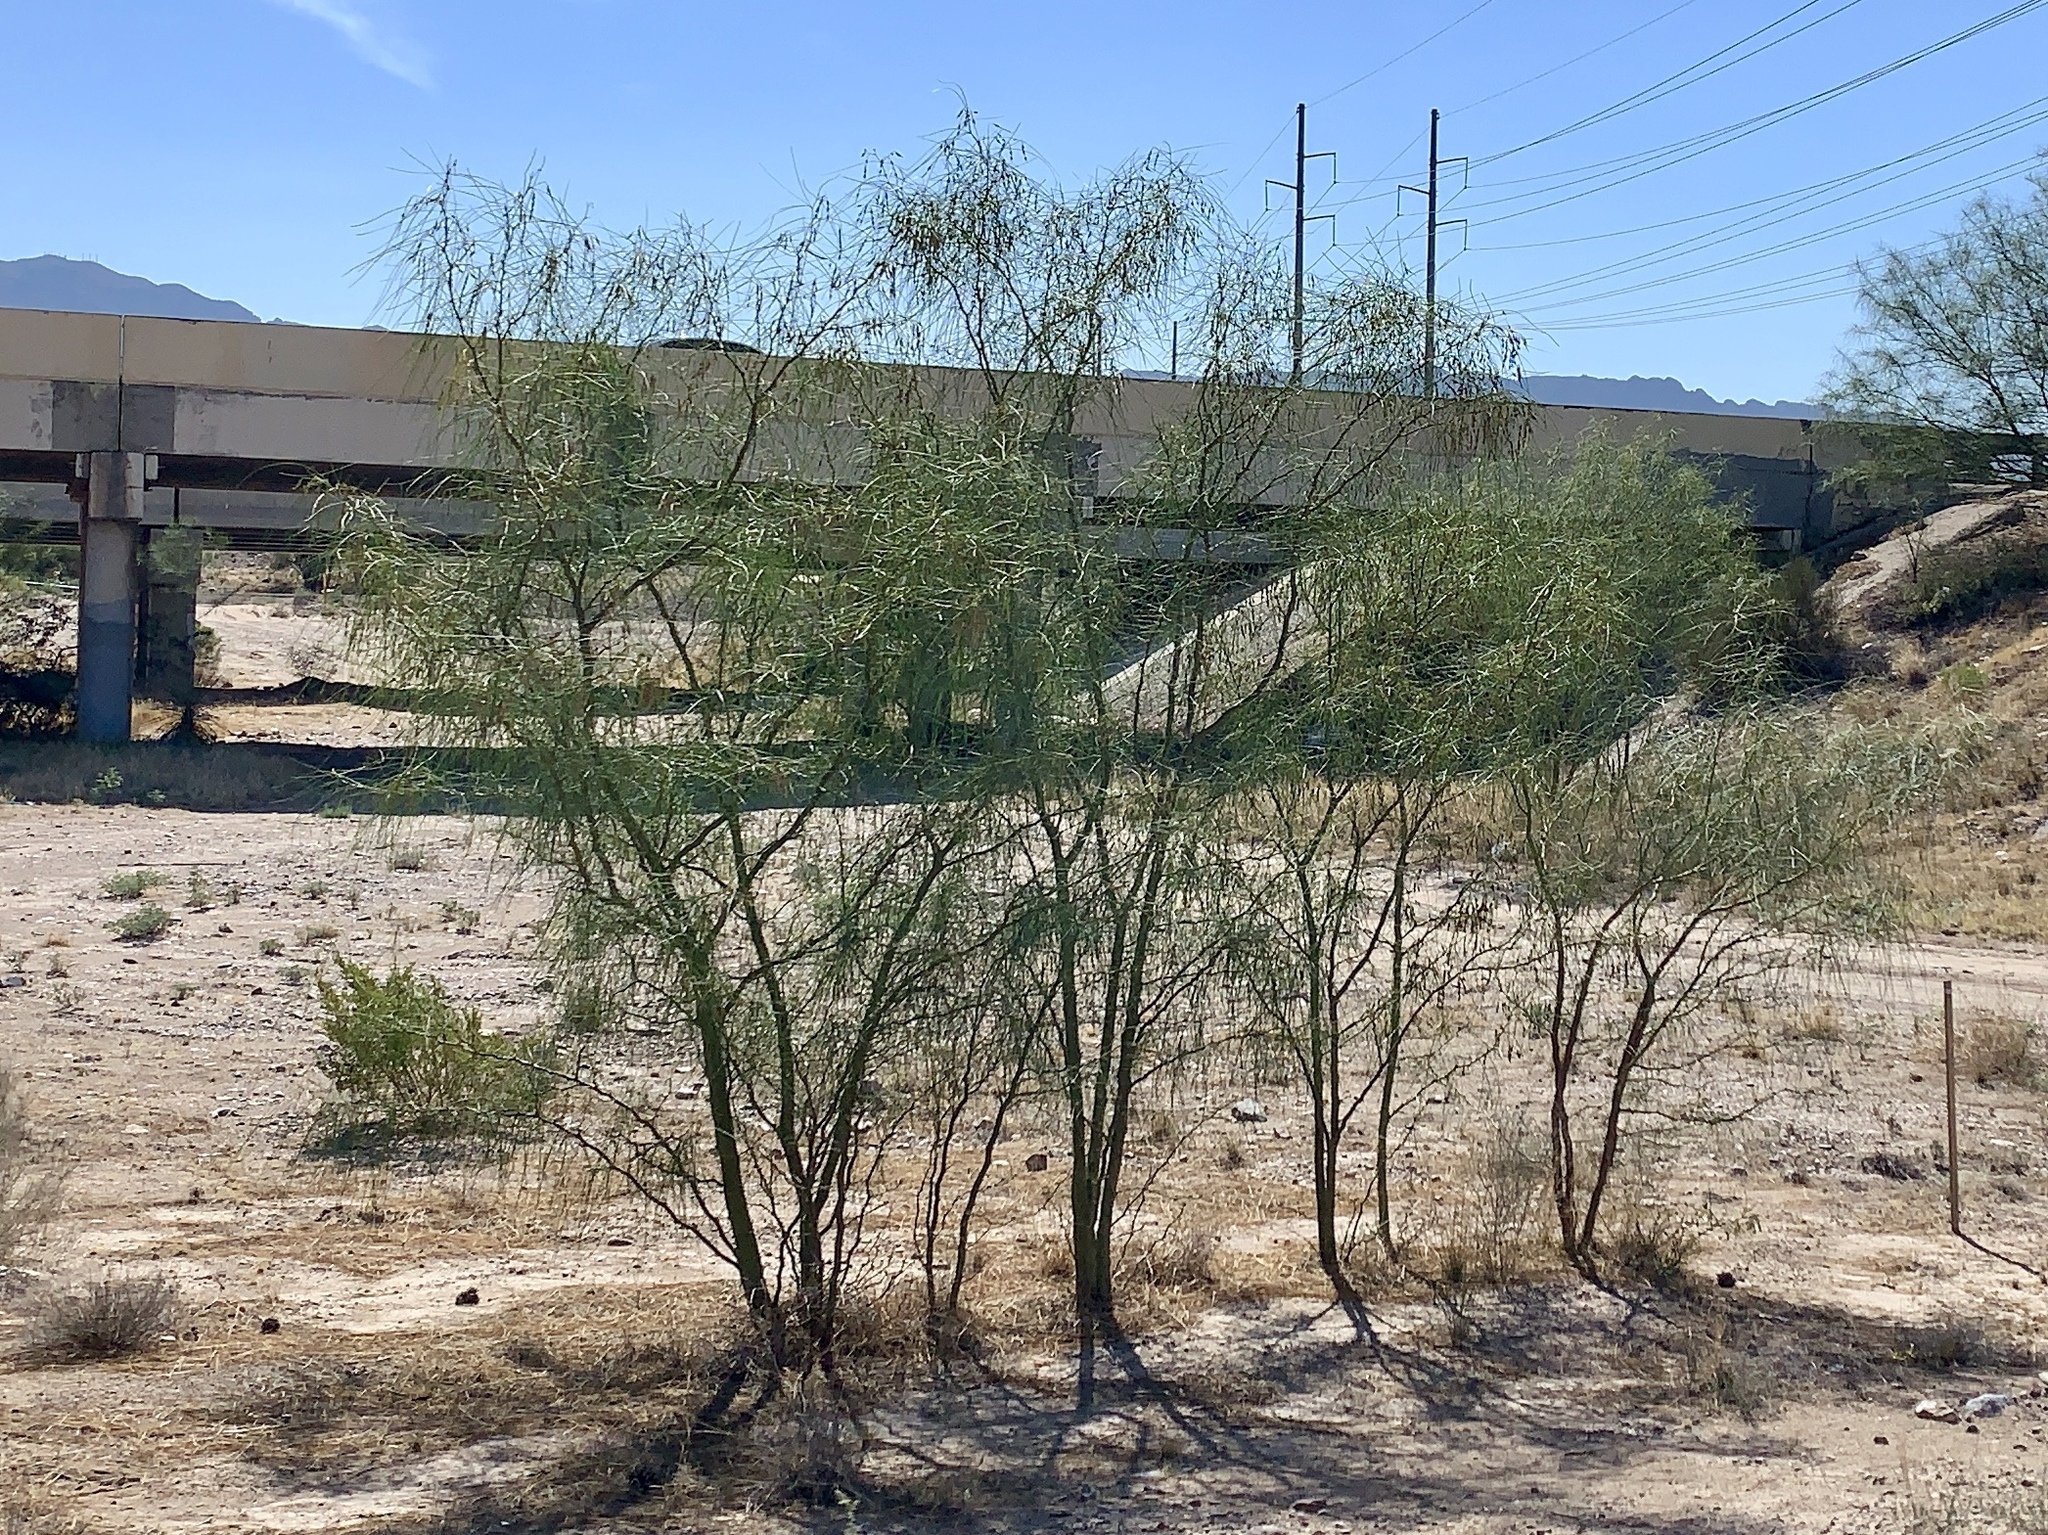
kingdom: Plantae
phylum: Tracheophyta
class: Magnoliopsida
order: Fabales
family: Fabaceae
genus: Parkinsonia
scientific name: Parkinsonia aculeata
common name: Jerusalem thorn
